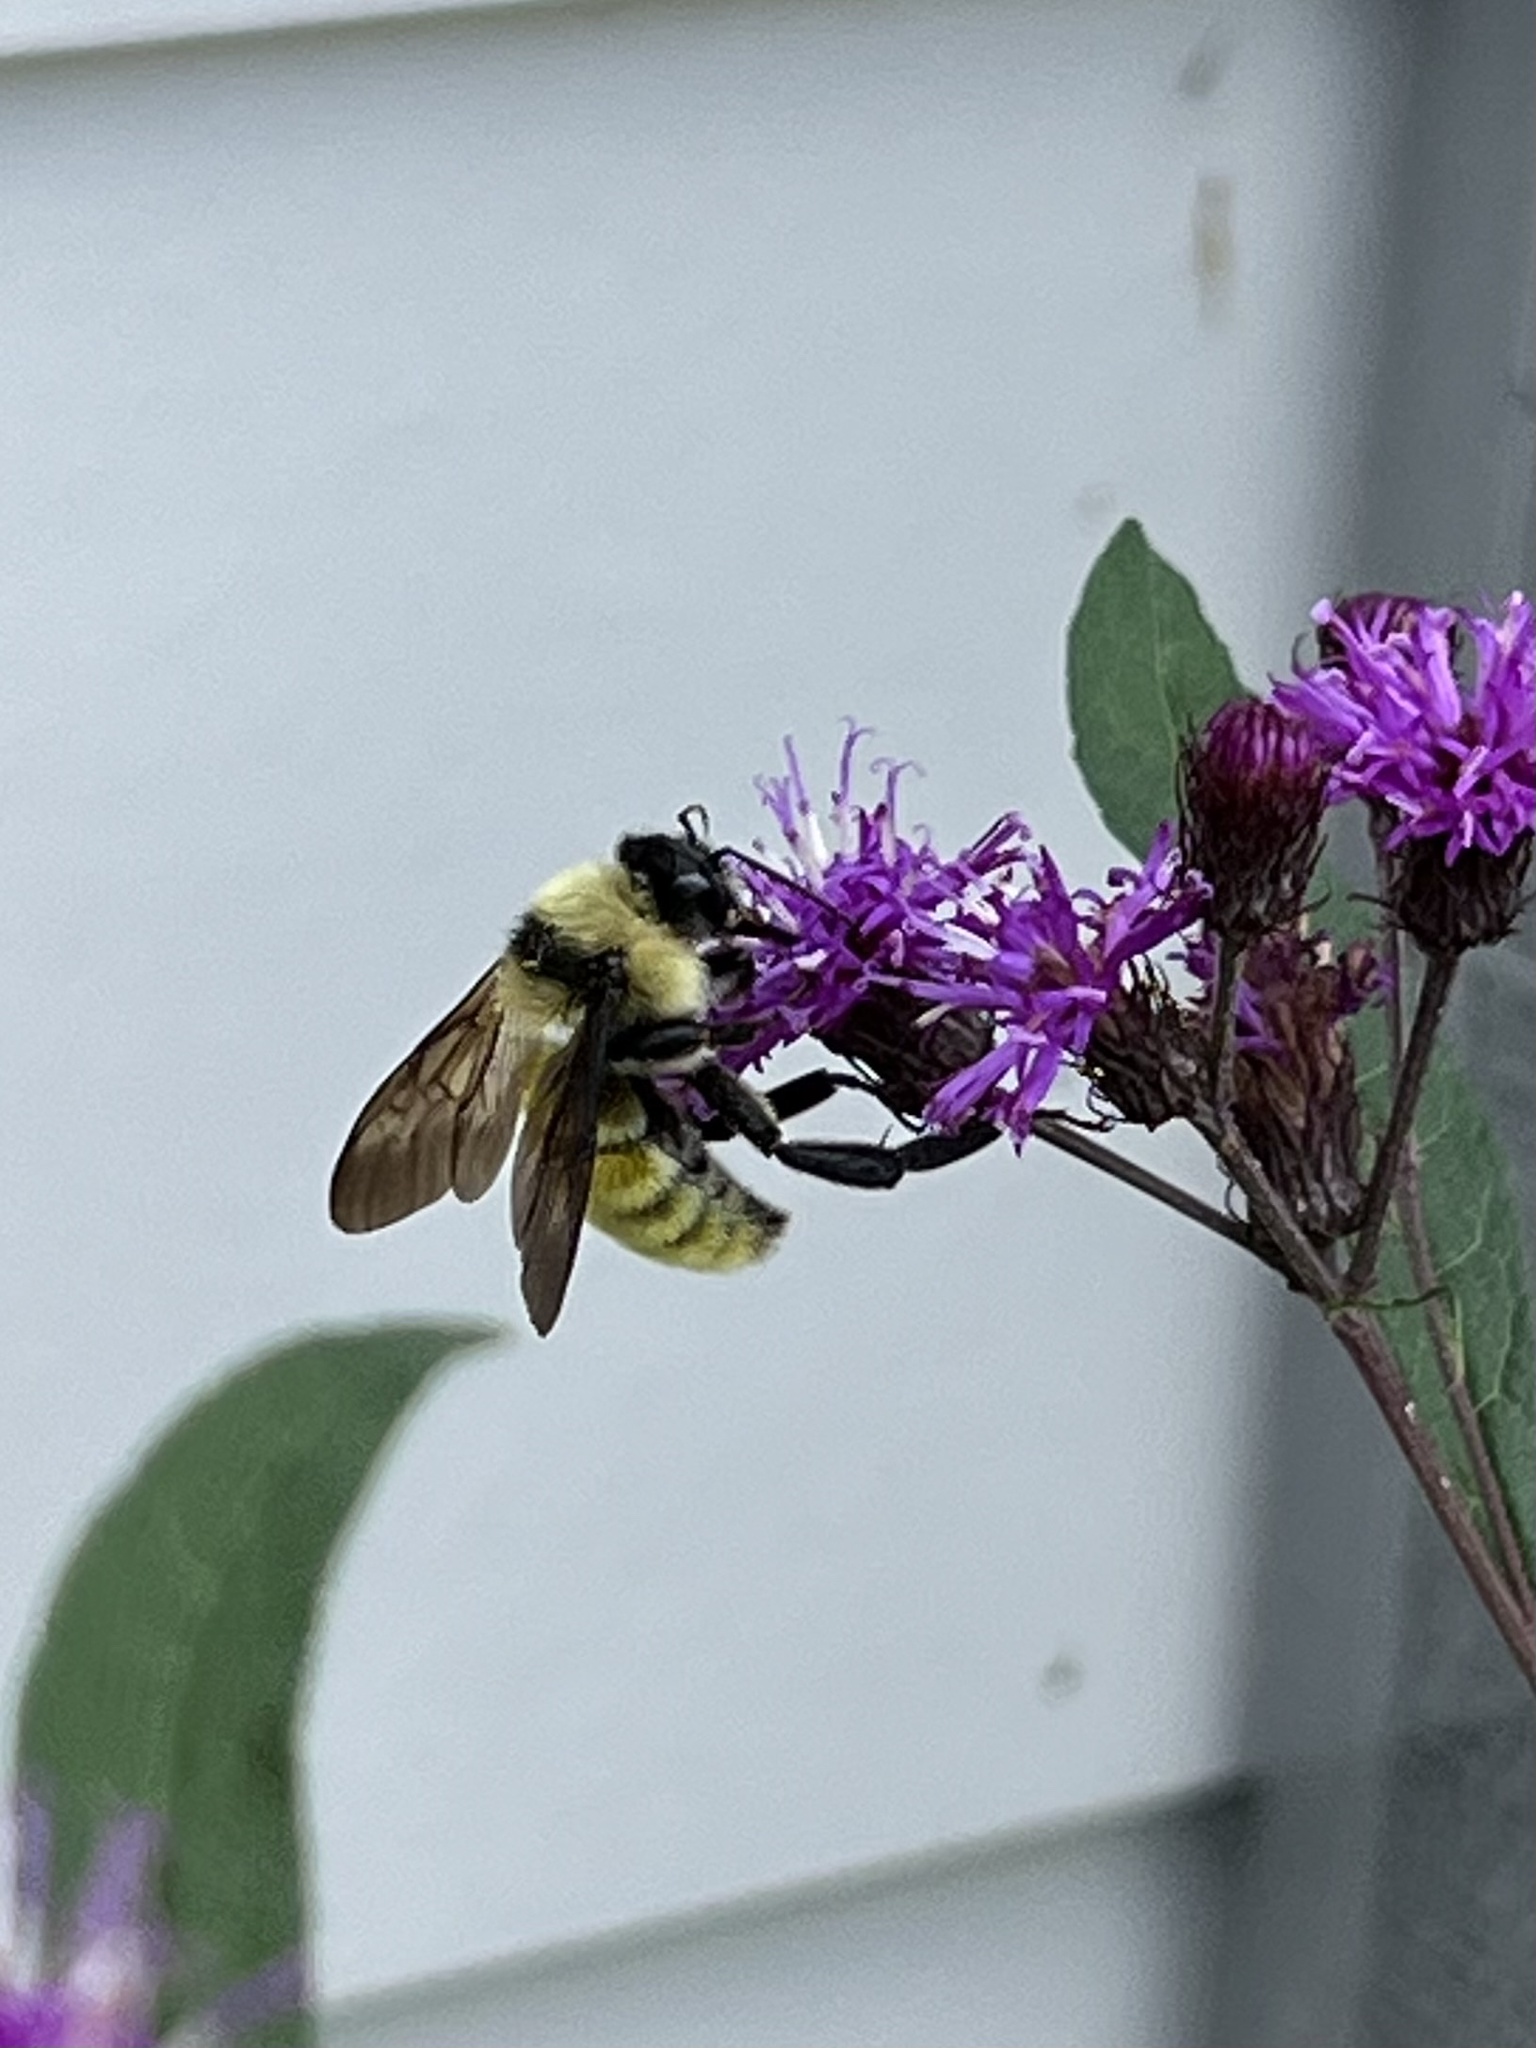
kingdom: Animalia
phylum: Arthropoda
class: Insecta
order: Hymenoptera
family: Apidae
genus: Bombus
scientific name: Bombus pensylvanicus
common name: Bumble bee
